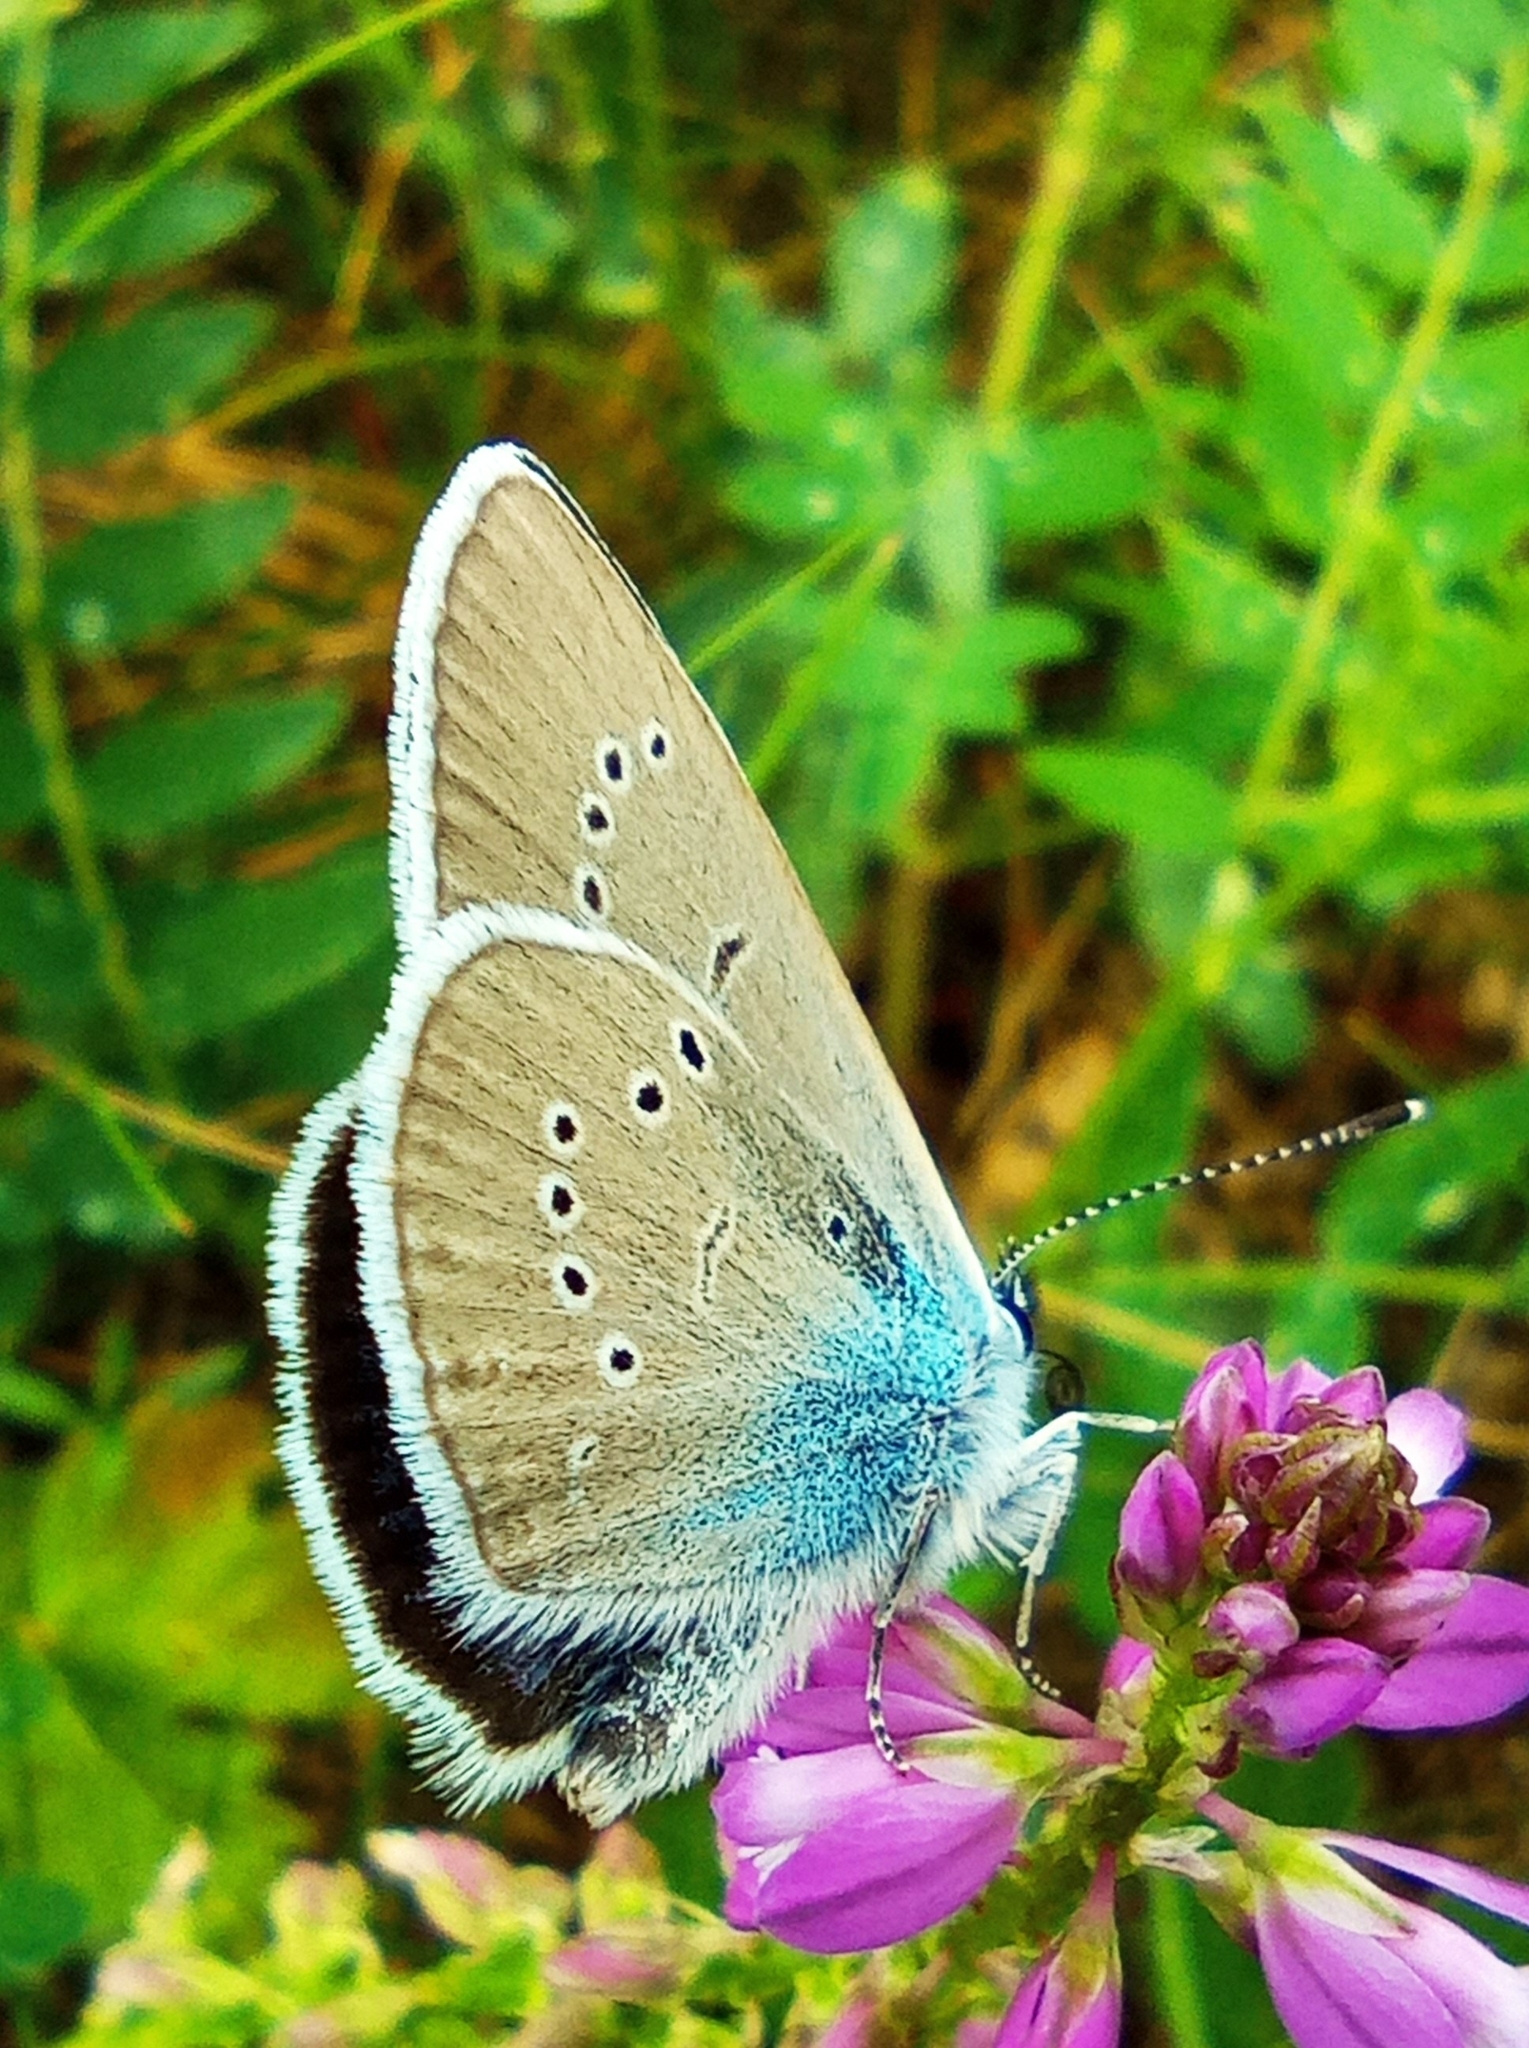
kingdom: Animalia
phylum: Arthropoda
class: Insecta
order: Lepidoptera
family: Lycaenidae
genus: Cyaniris
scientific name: Cyaniris semiargus
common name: Mazarine blue
